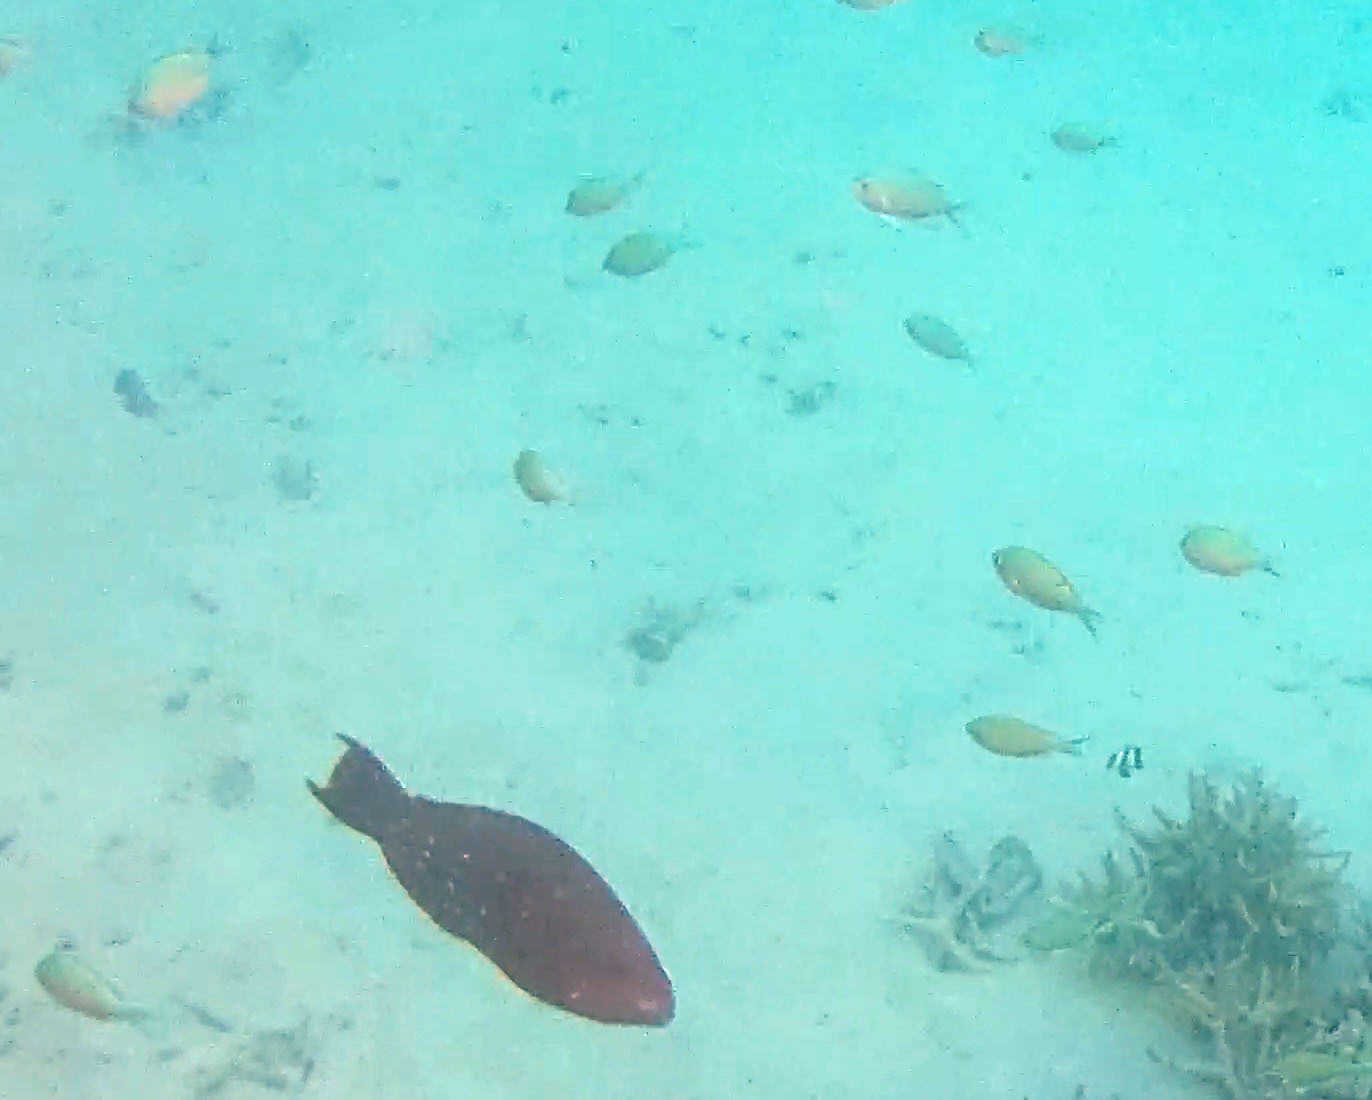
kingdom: Animalia
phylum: Chordata
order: Perciformes
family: Scaridae
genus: Scarus
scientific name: Scarus altipinnis
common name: Minifin parrotfish
